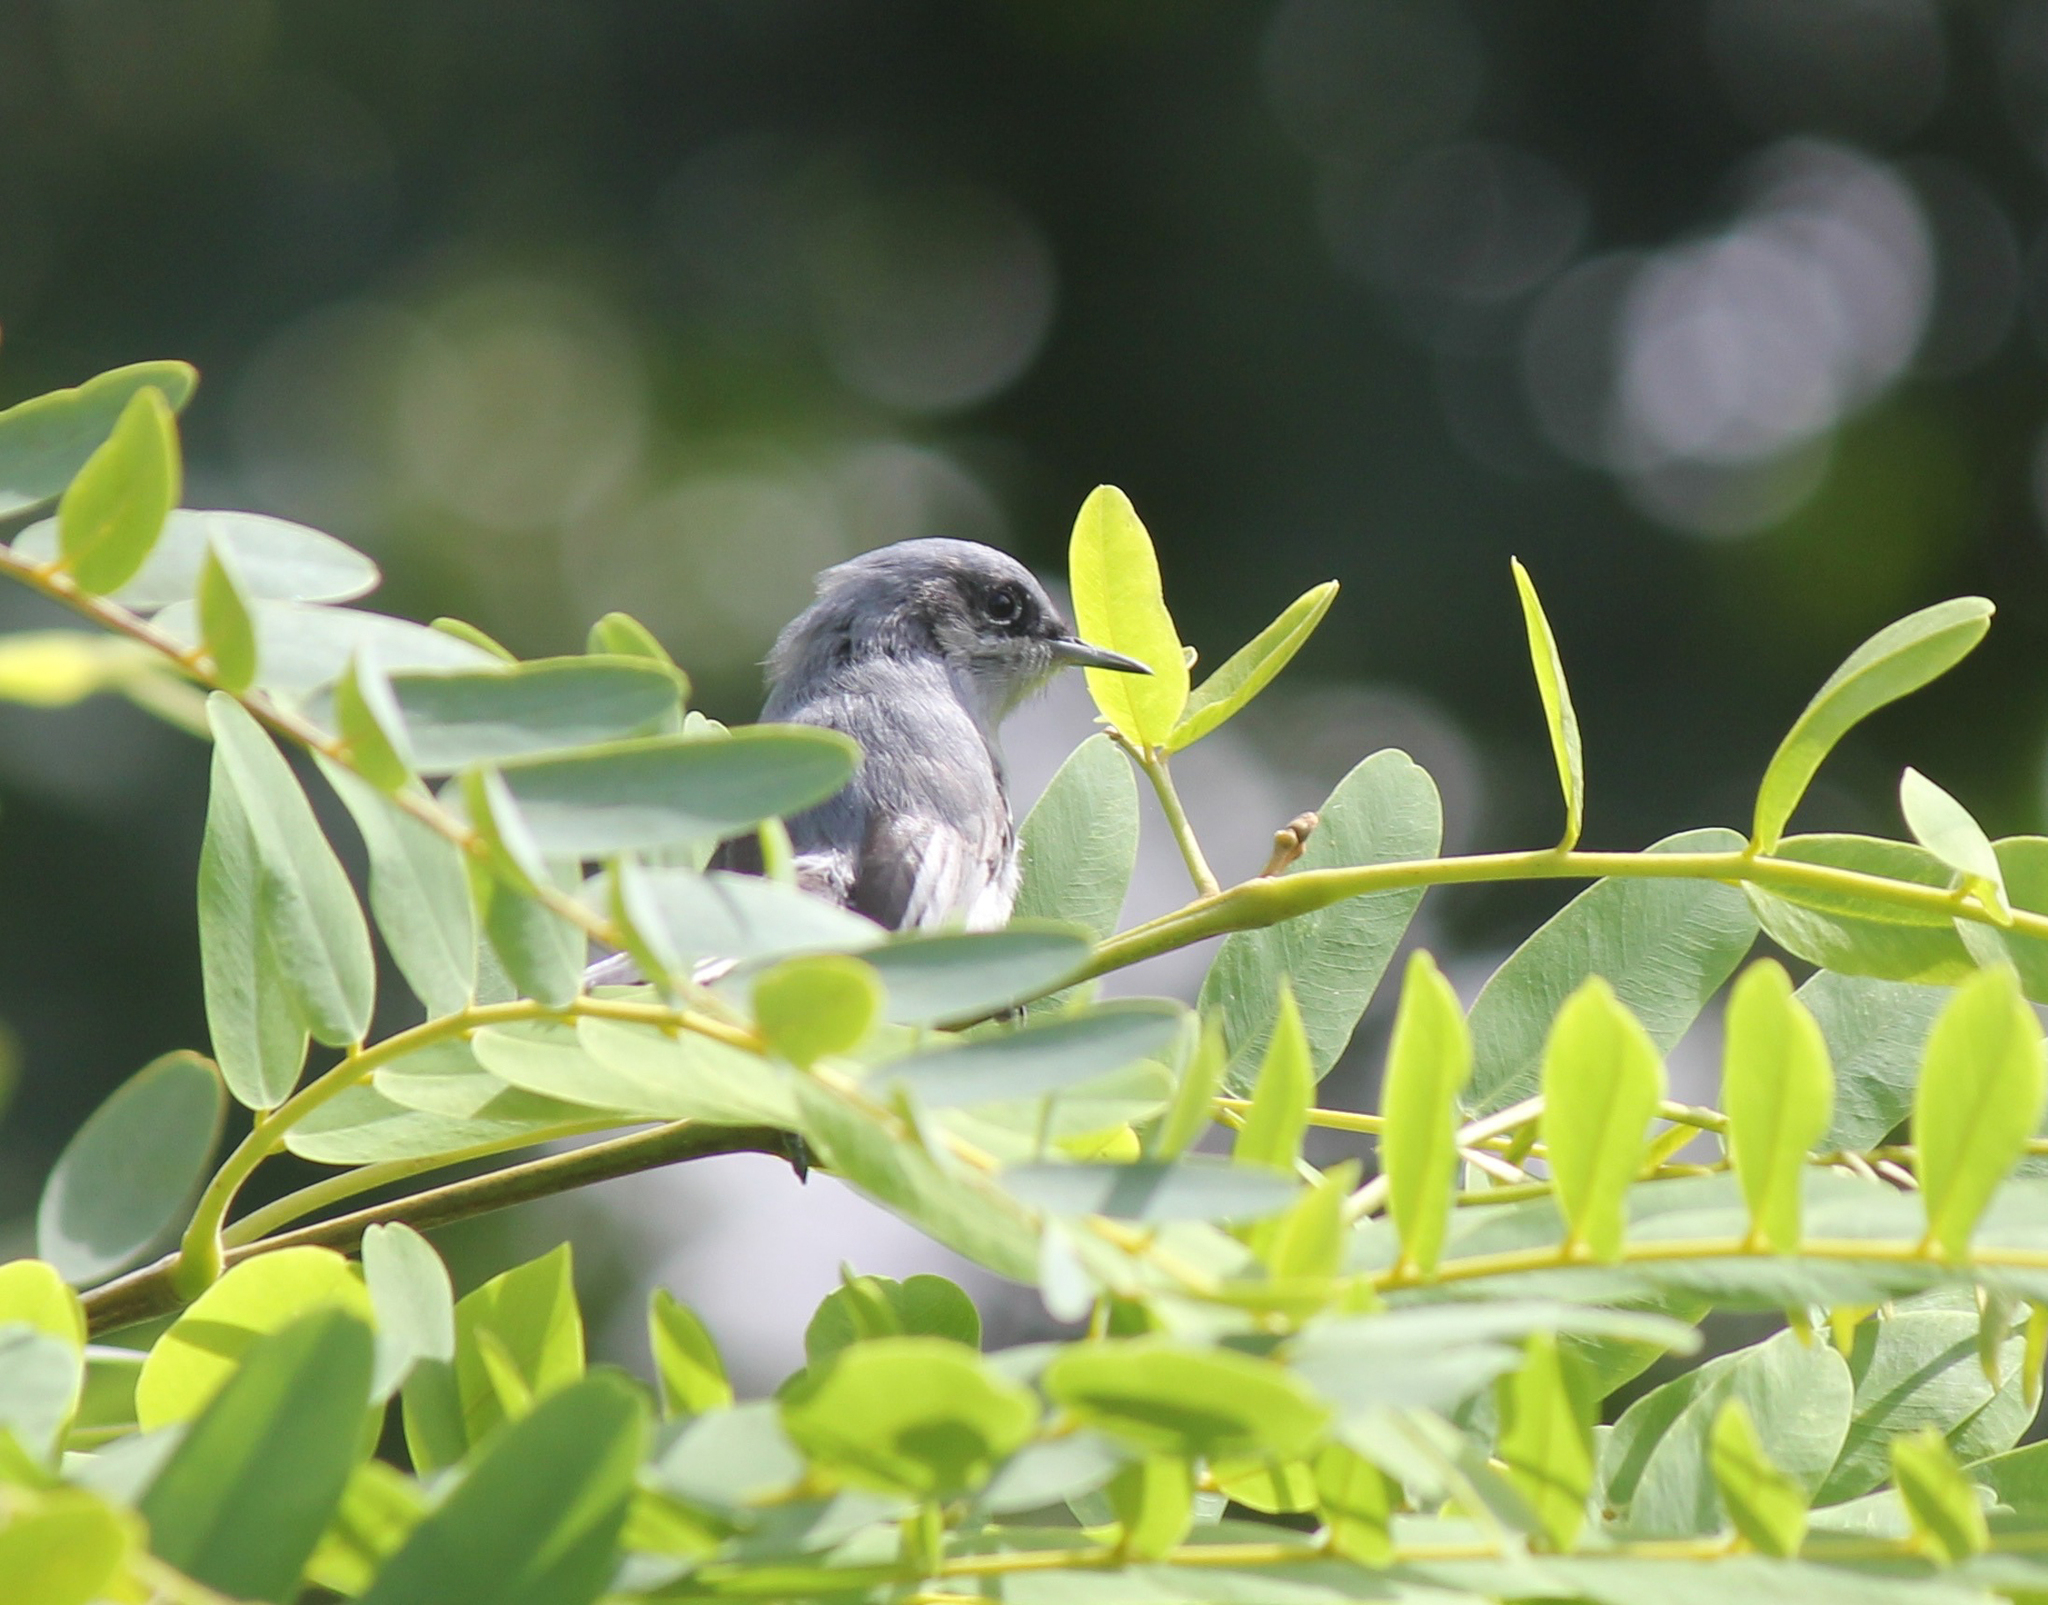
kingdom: Animalia
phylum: Chordata
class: Aves
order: Passeriformes
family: Polioptilidae
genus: Polioptila
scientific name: Polioptila dumicola
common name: Masked gnatcatcher
